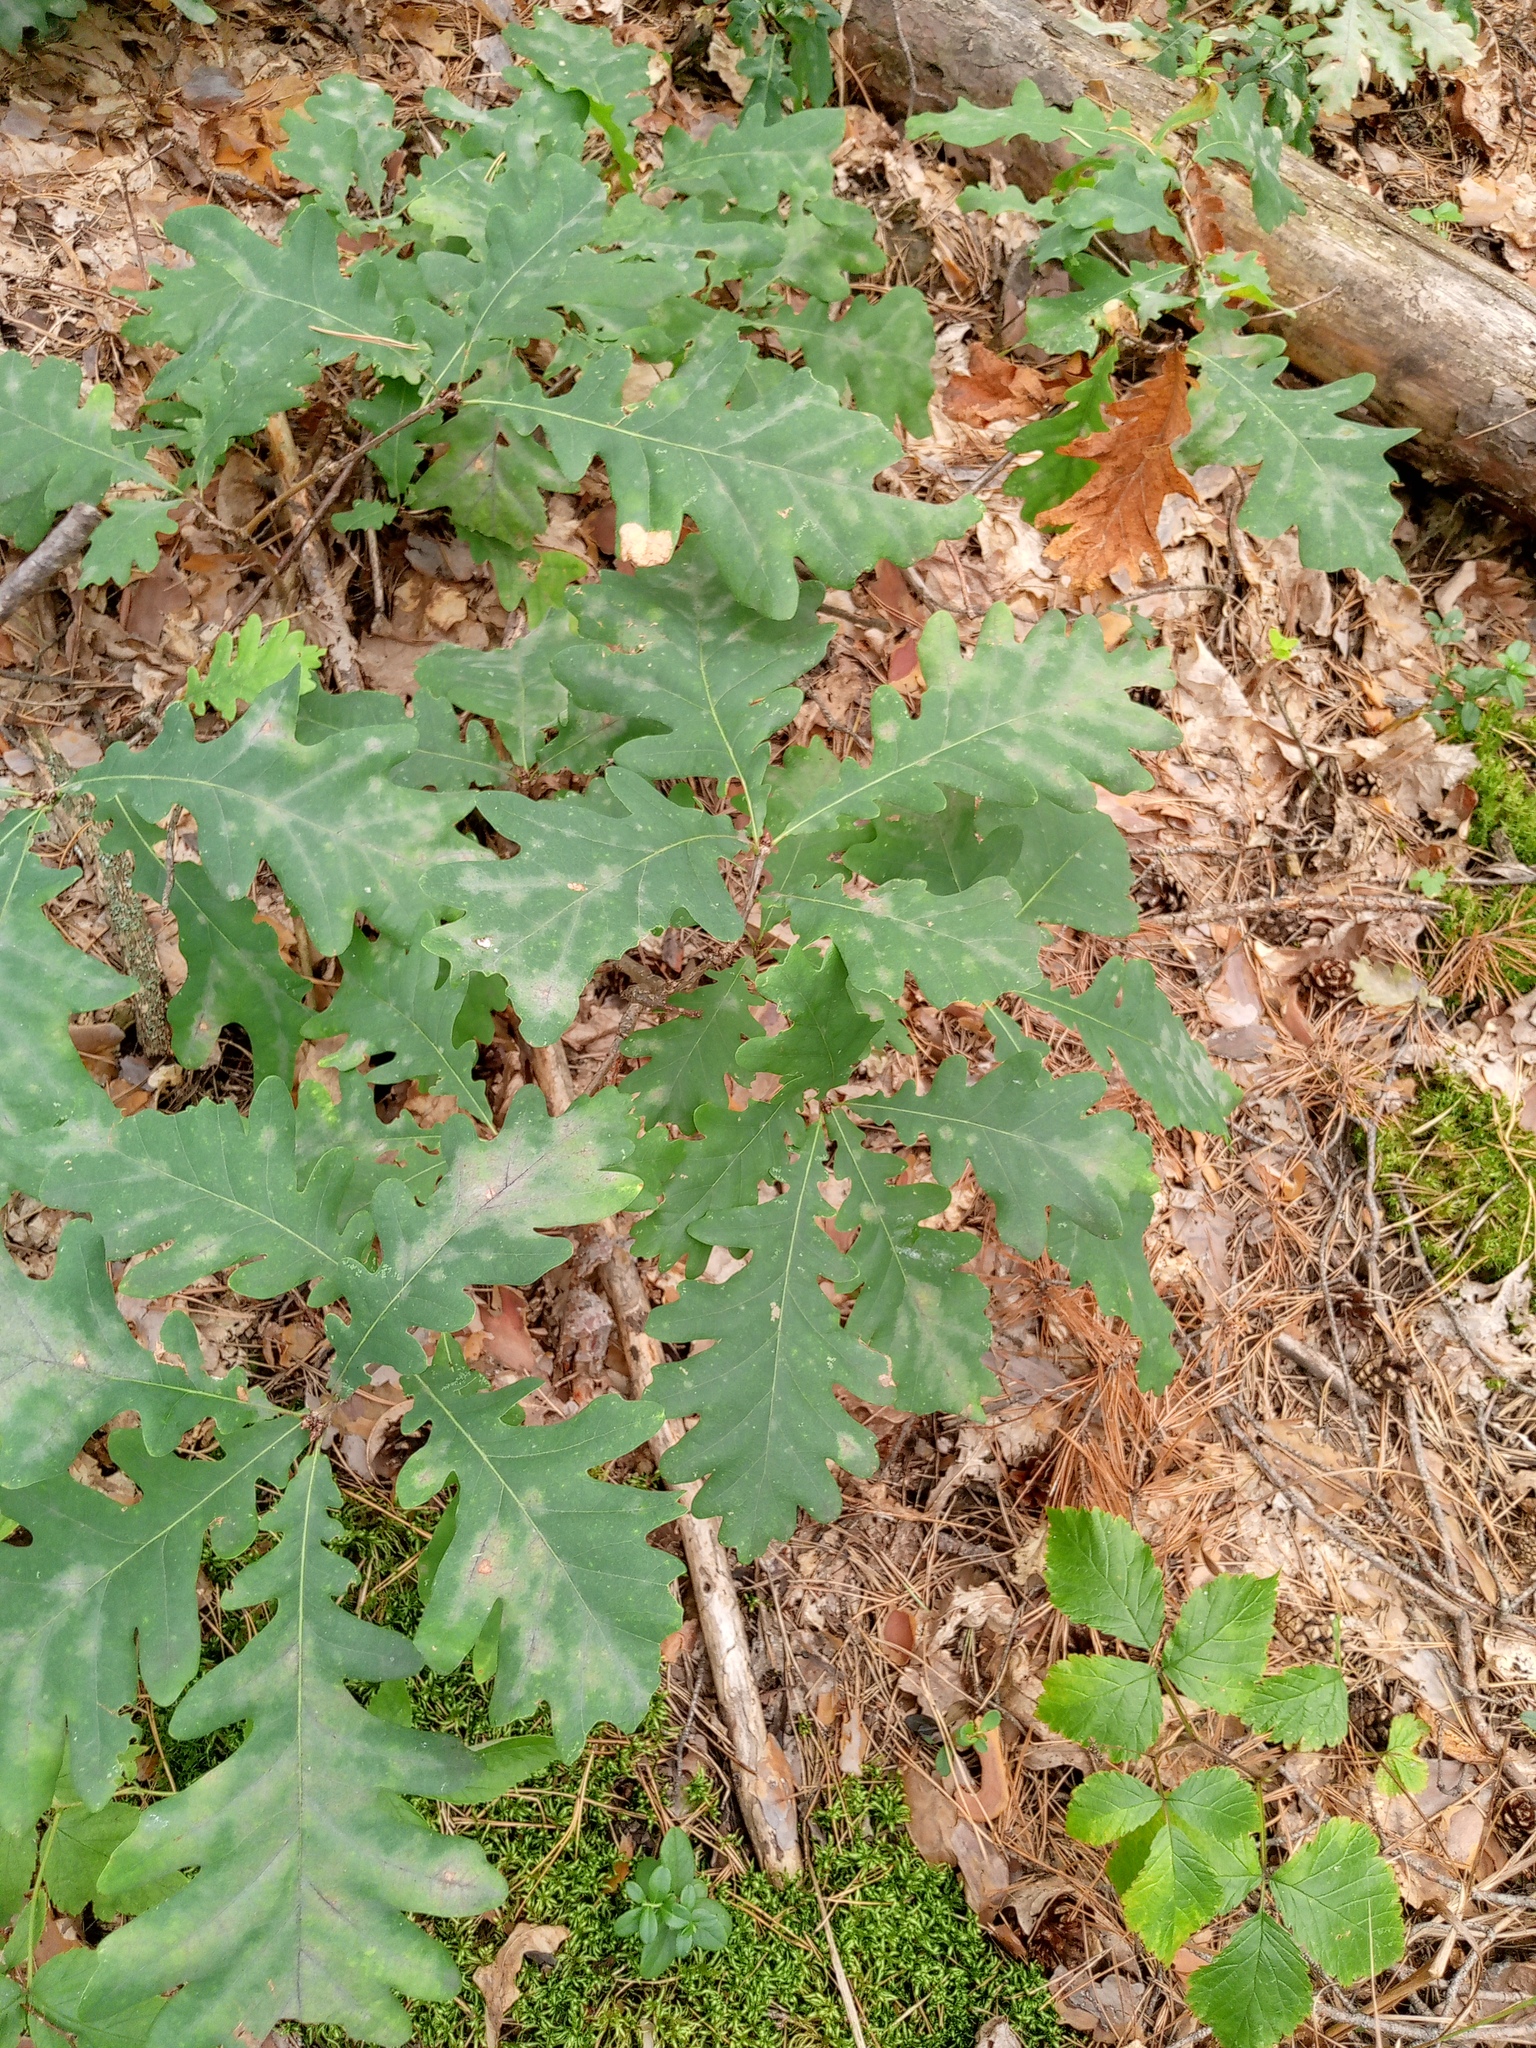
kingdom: Plantae
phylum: Tracheophyta
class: Magnoliopsida
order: Fagales
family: Fagaceae
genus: Quercus
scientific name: Quercus robur
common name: Pedunculate oak
